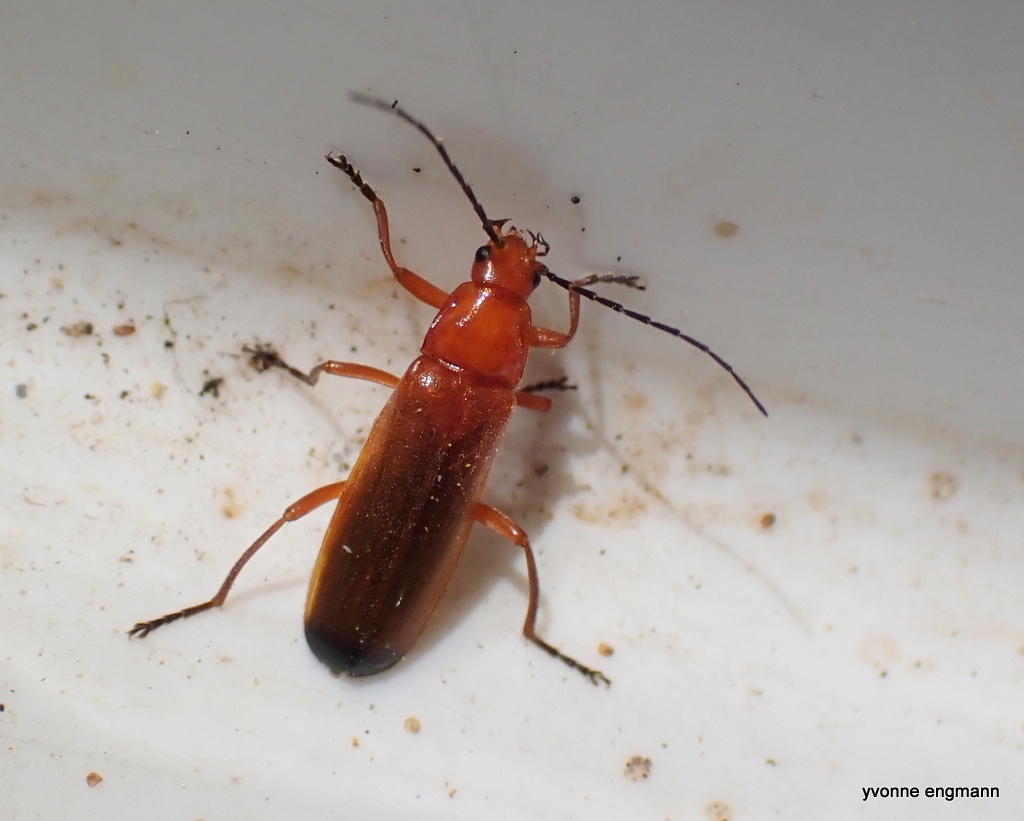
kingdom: Animalia
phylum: Arthropoda
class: Insecta
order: Coleoptera
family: Cantharidae
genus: Rhagonycha
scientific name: Rhagonycha fulva
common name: Common red soldier beetle
